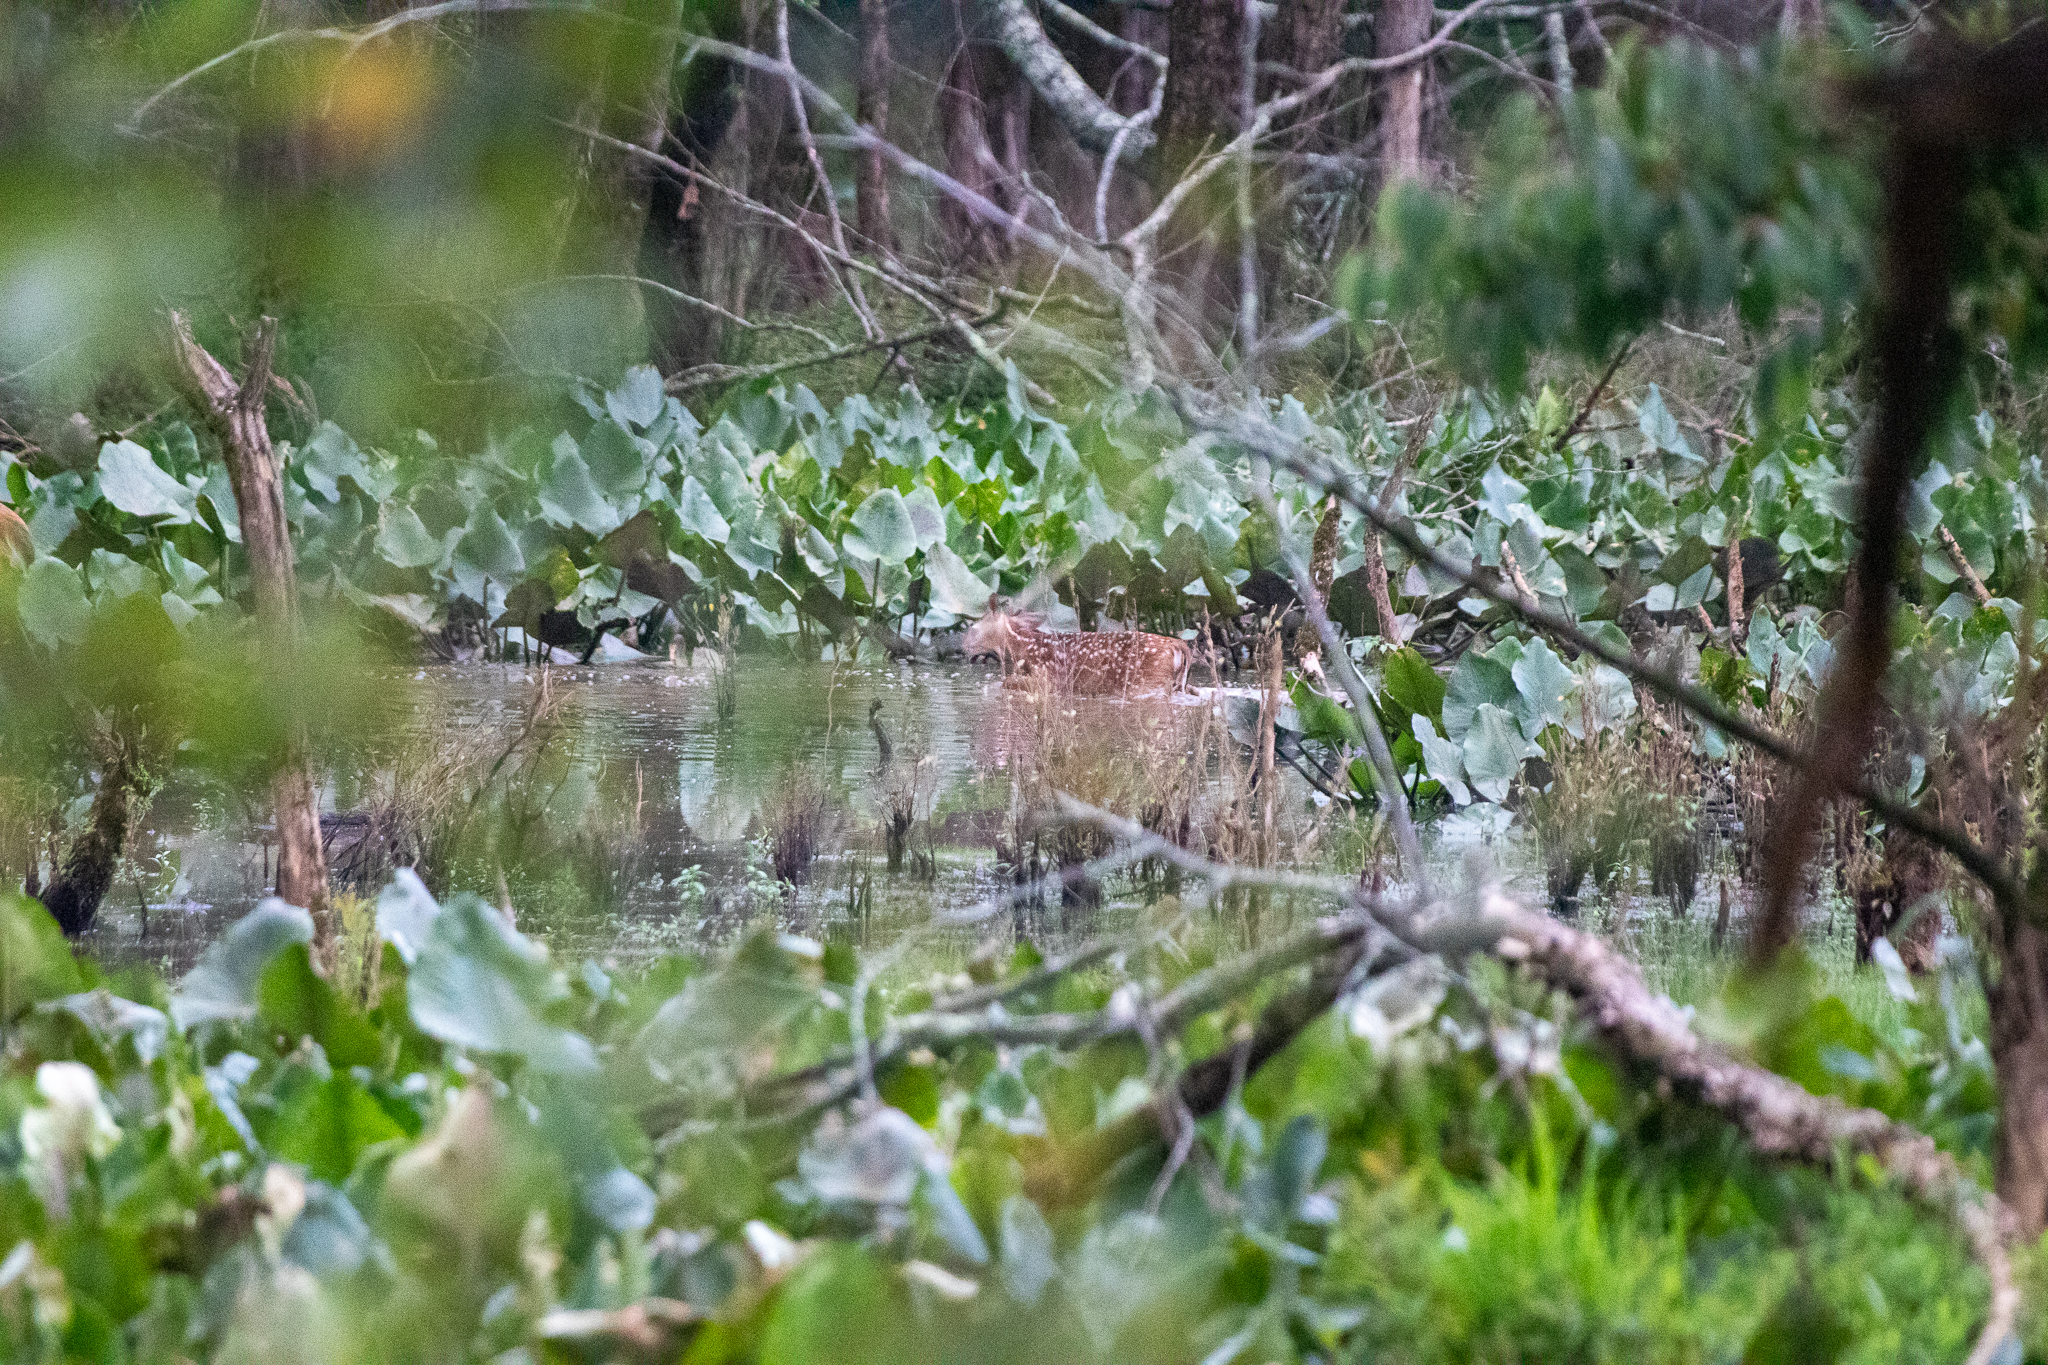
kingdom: Animalia
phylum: Chordata
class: Mammalia
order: Artiodactyla
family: Cervidae
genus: Odocoileus
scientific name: Odocoileus virginianus
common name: White-tailed deer
